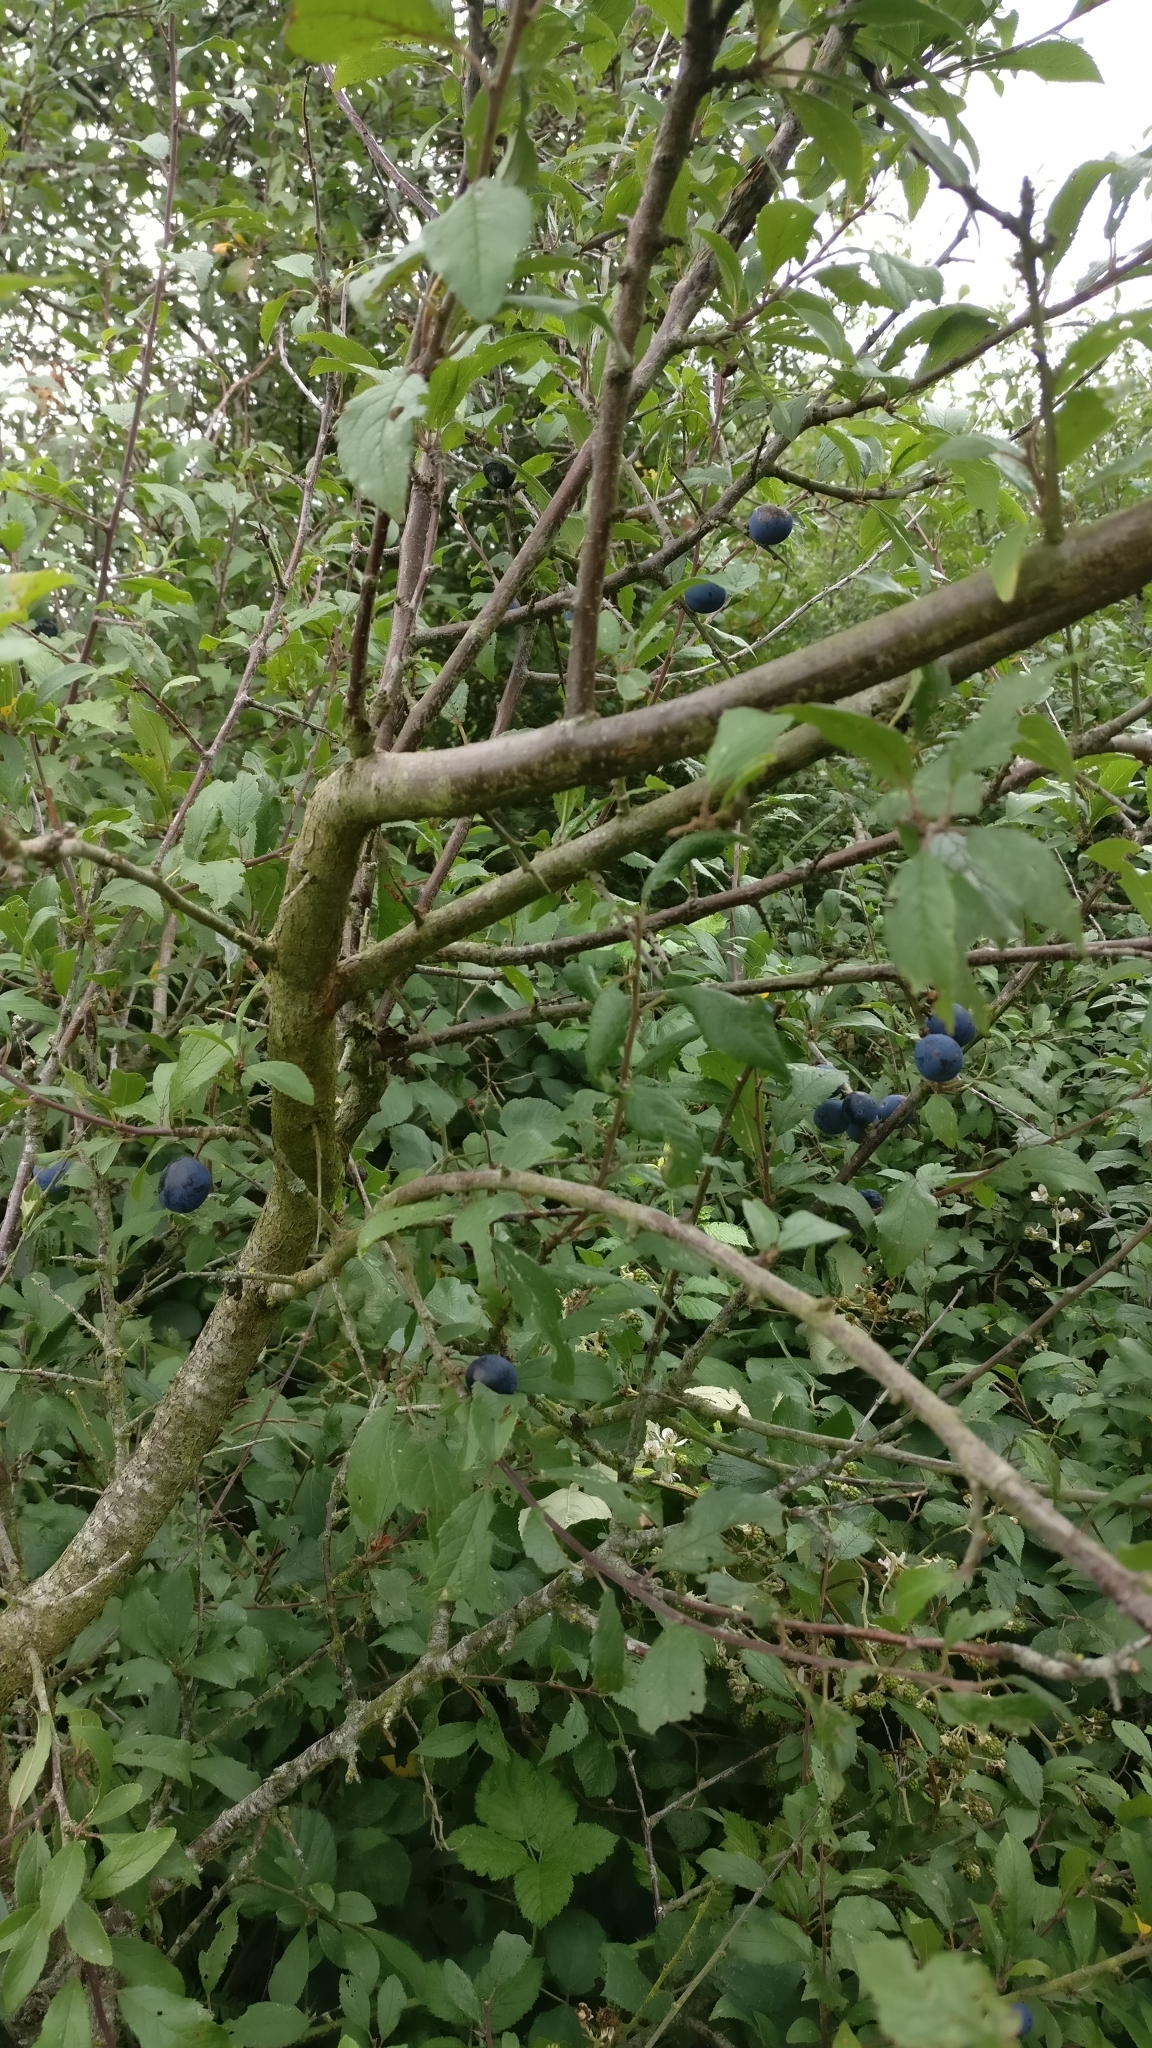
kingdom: Plantae
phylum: Tracheophyta
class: Magnoliopsida
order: Rosales
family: Rosaceae
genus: Prunus
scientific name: Prunus spinosa
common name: Blackthorn
